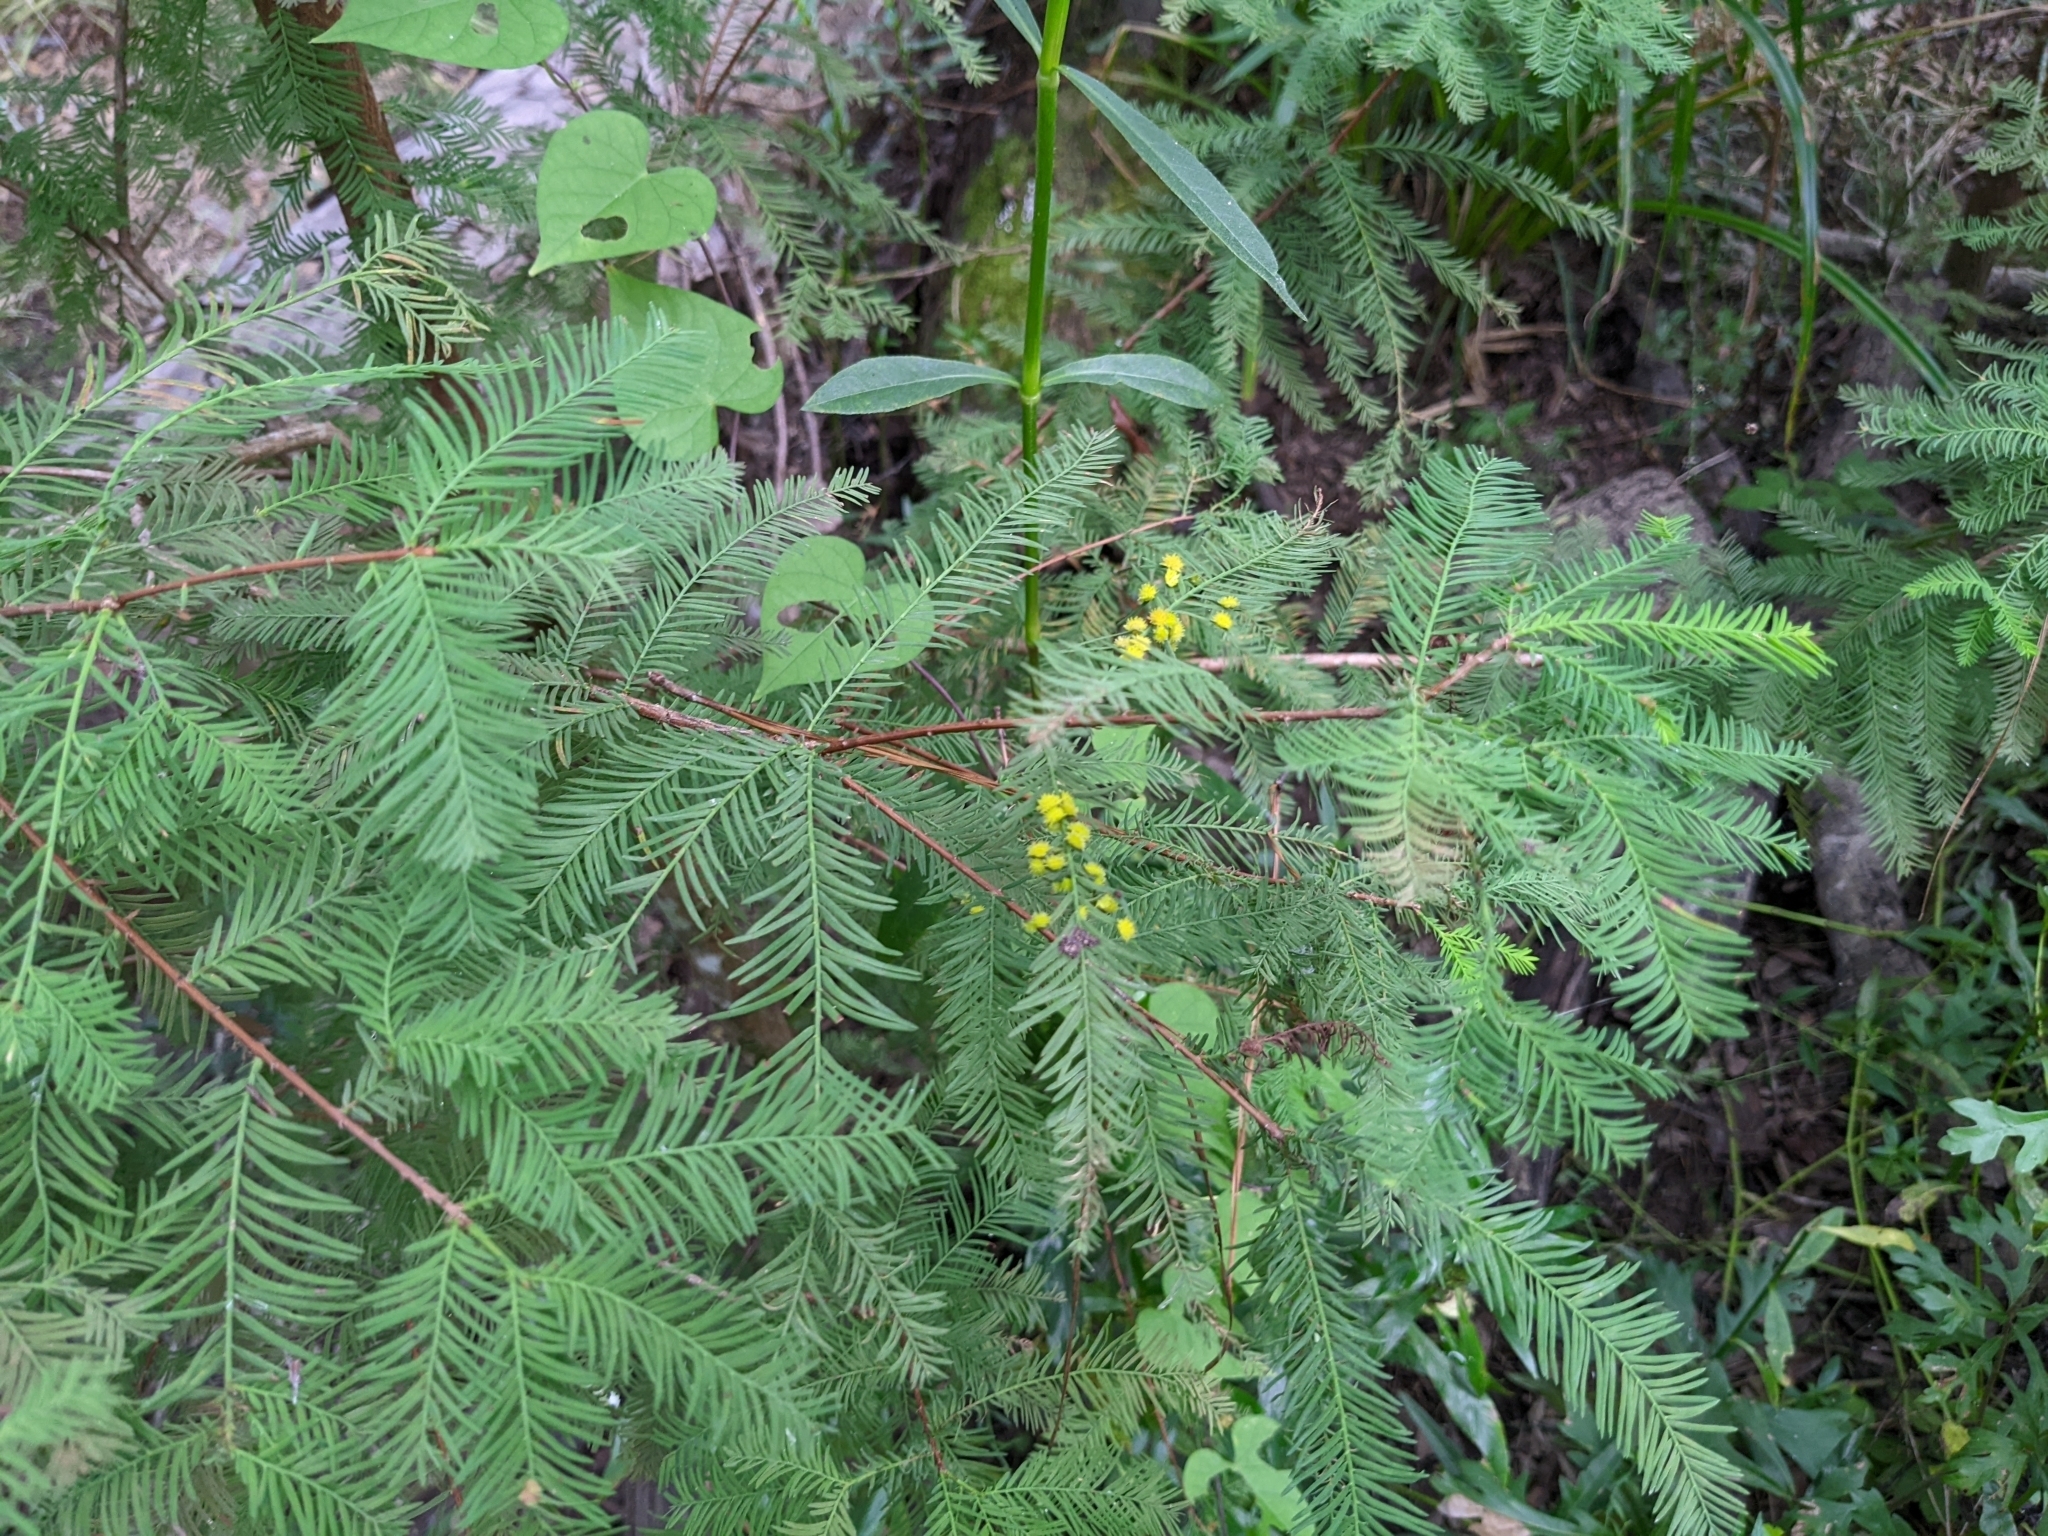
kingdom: Plantae
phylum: Tracheophyta
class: Pinopsida
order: Pinales
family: Cupressaceae
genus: Taxodium
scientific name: Taxodium distichum
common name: Bald cypress
